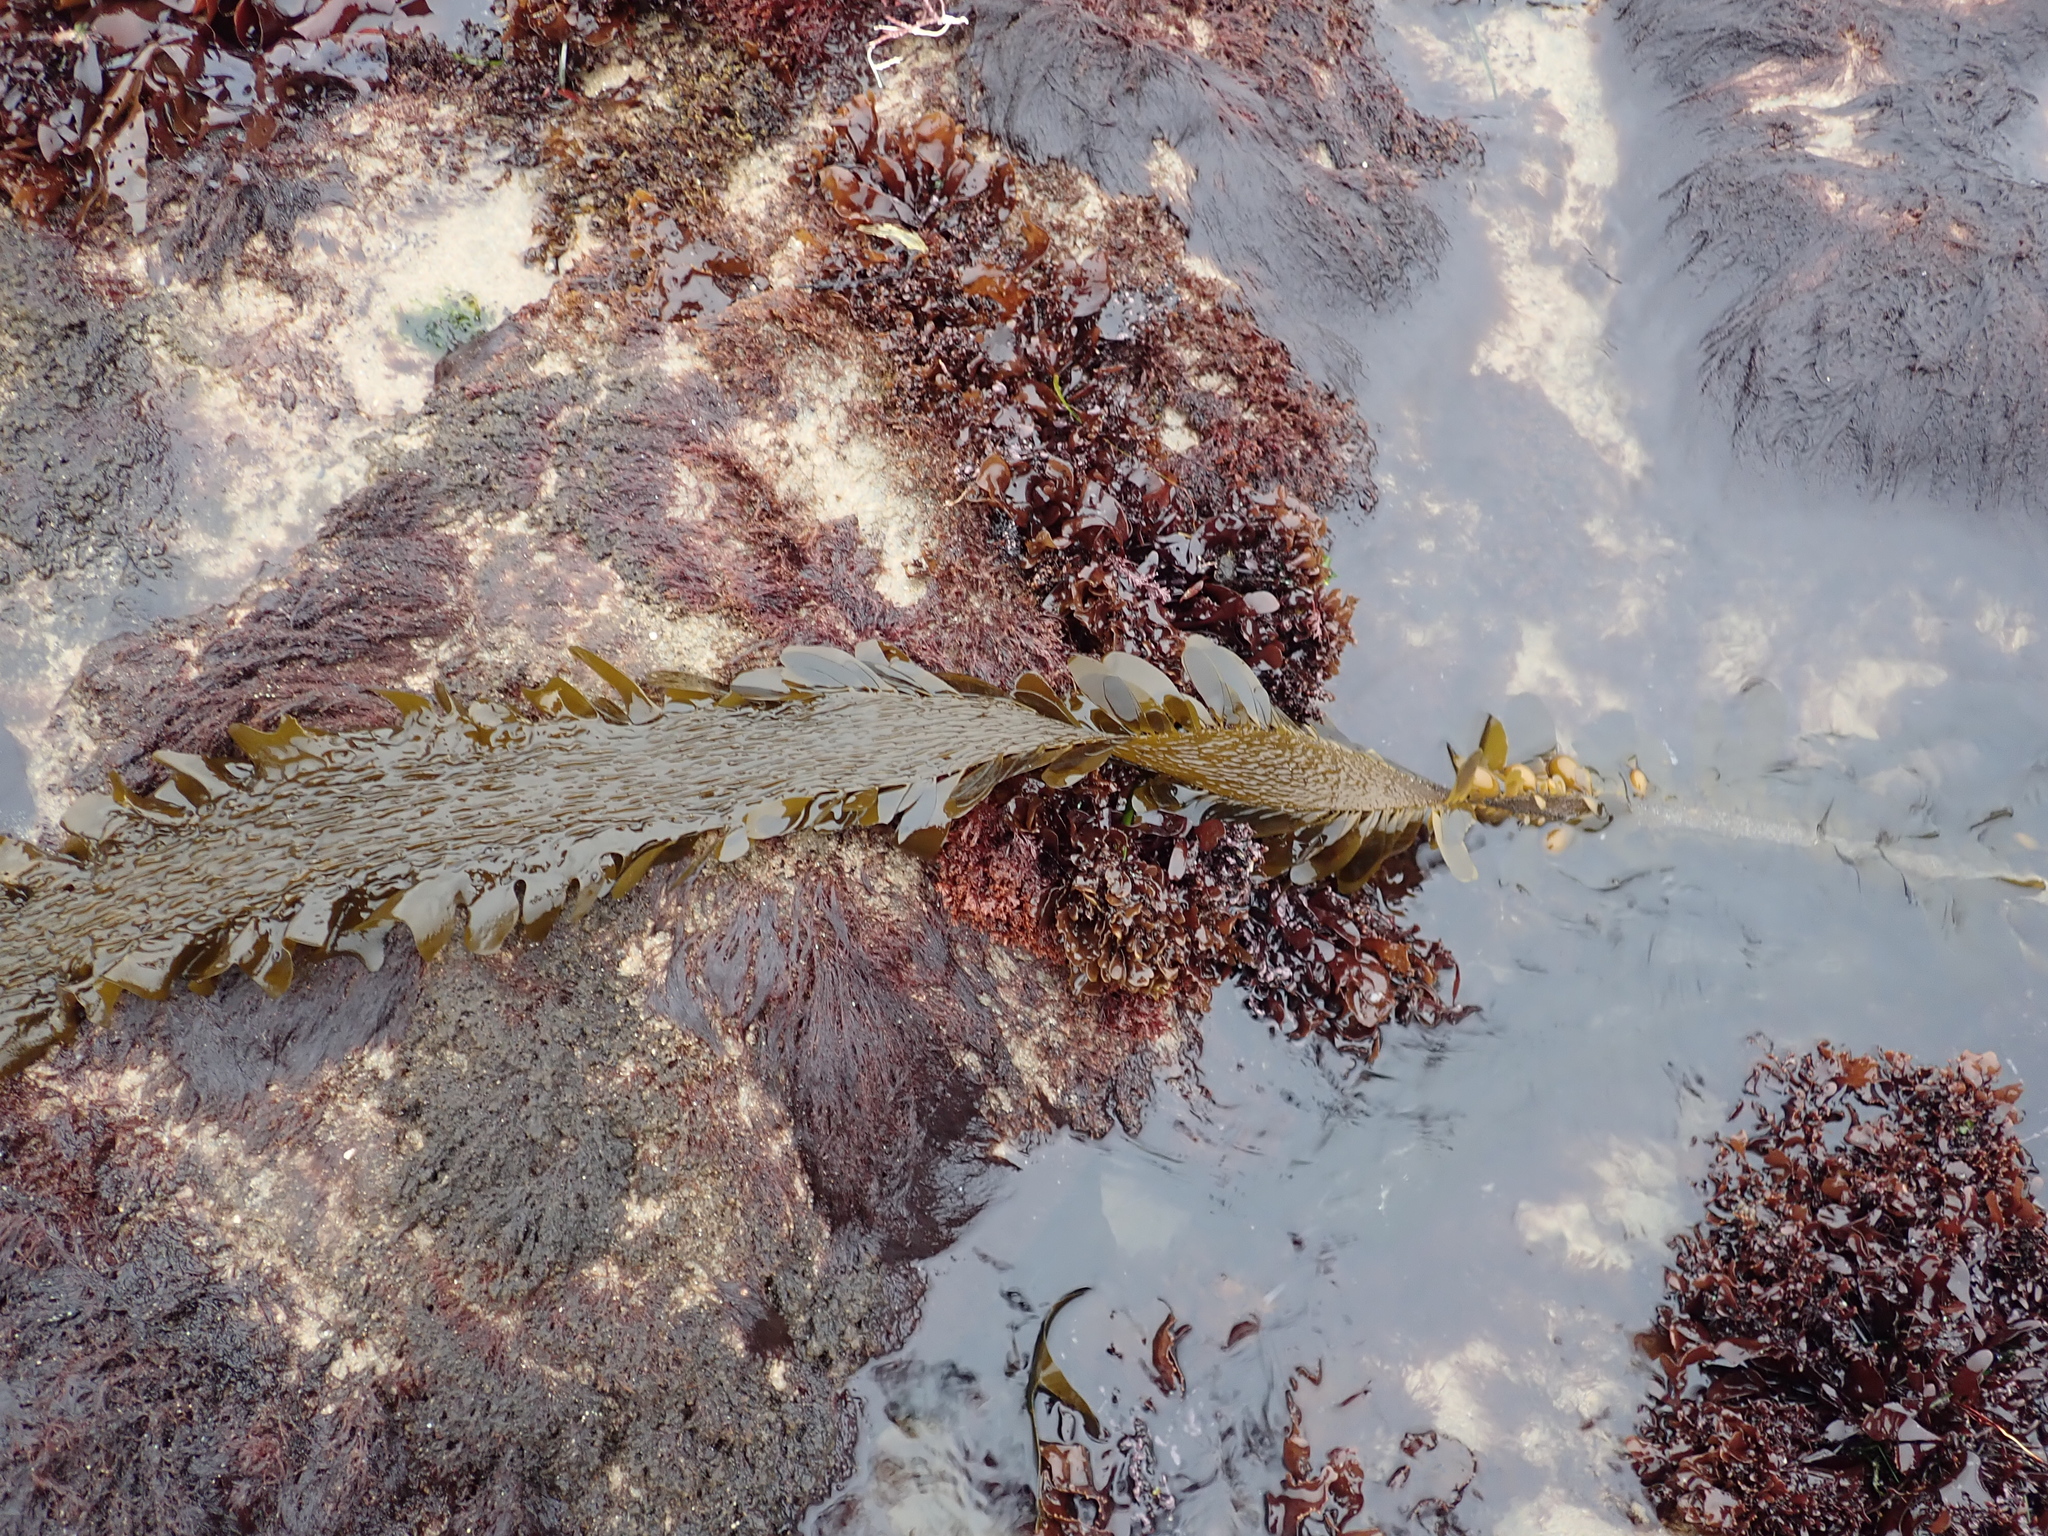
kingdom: Chromista
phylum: Ochrophyta
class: Phaeophyceae
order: Laminariales
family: Lessoniaceae
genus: Egregia
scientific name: Egregia menziesii
